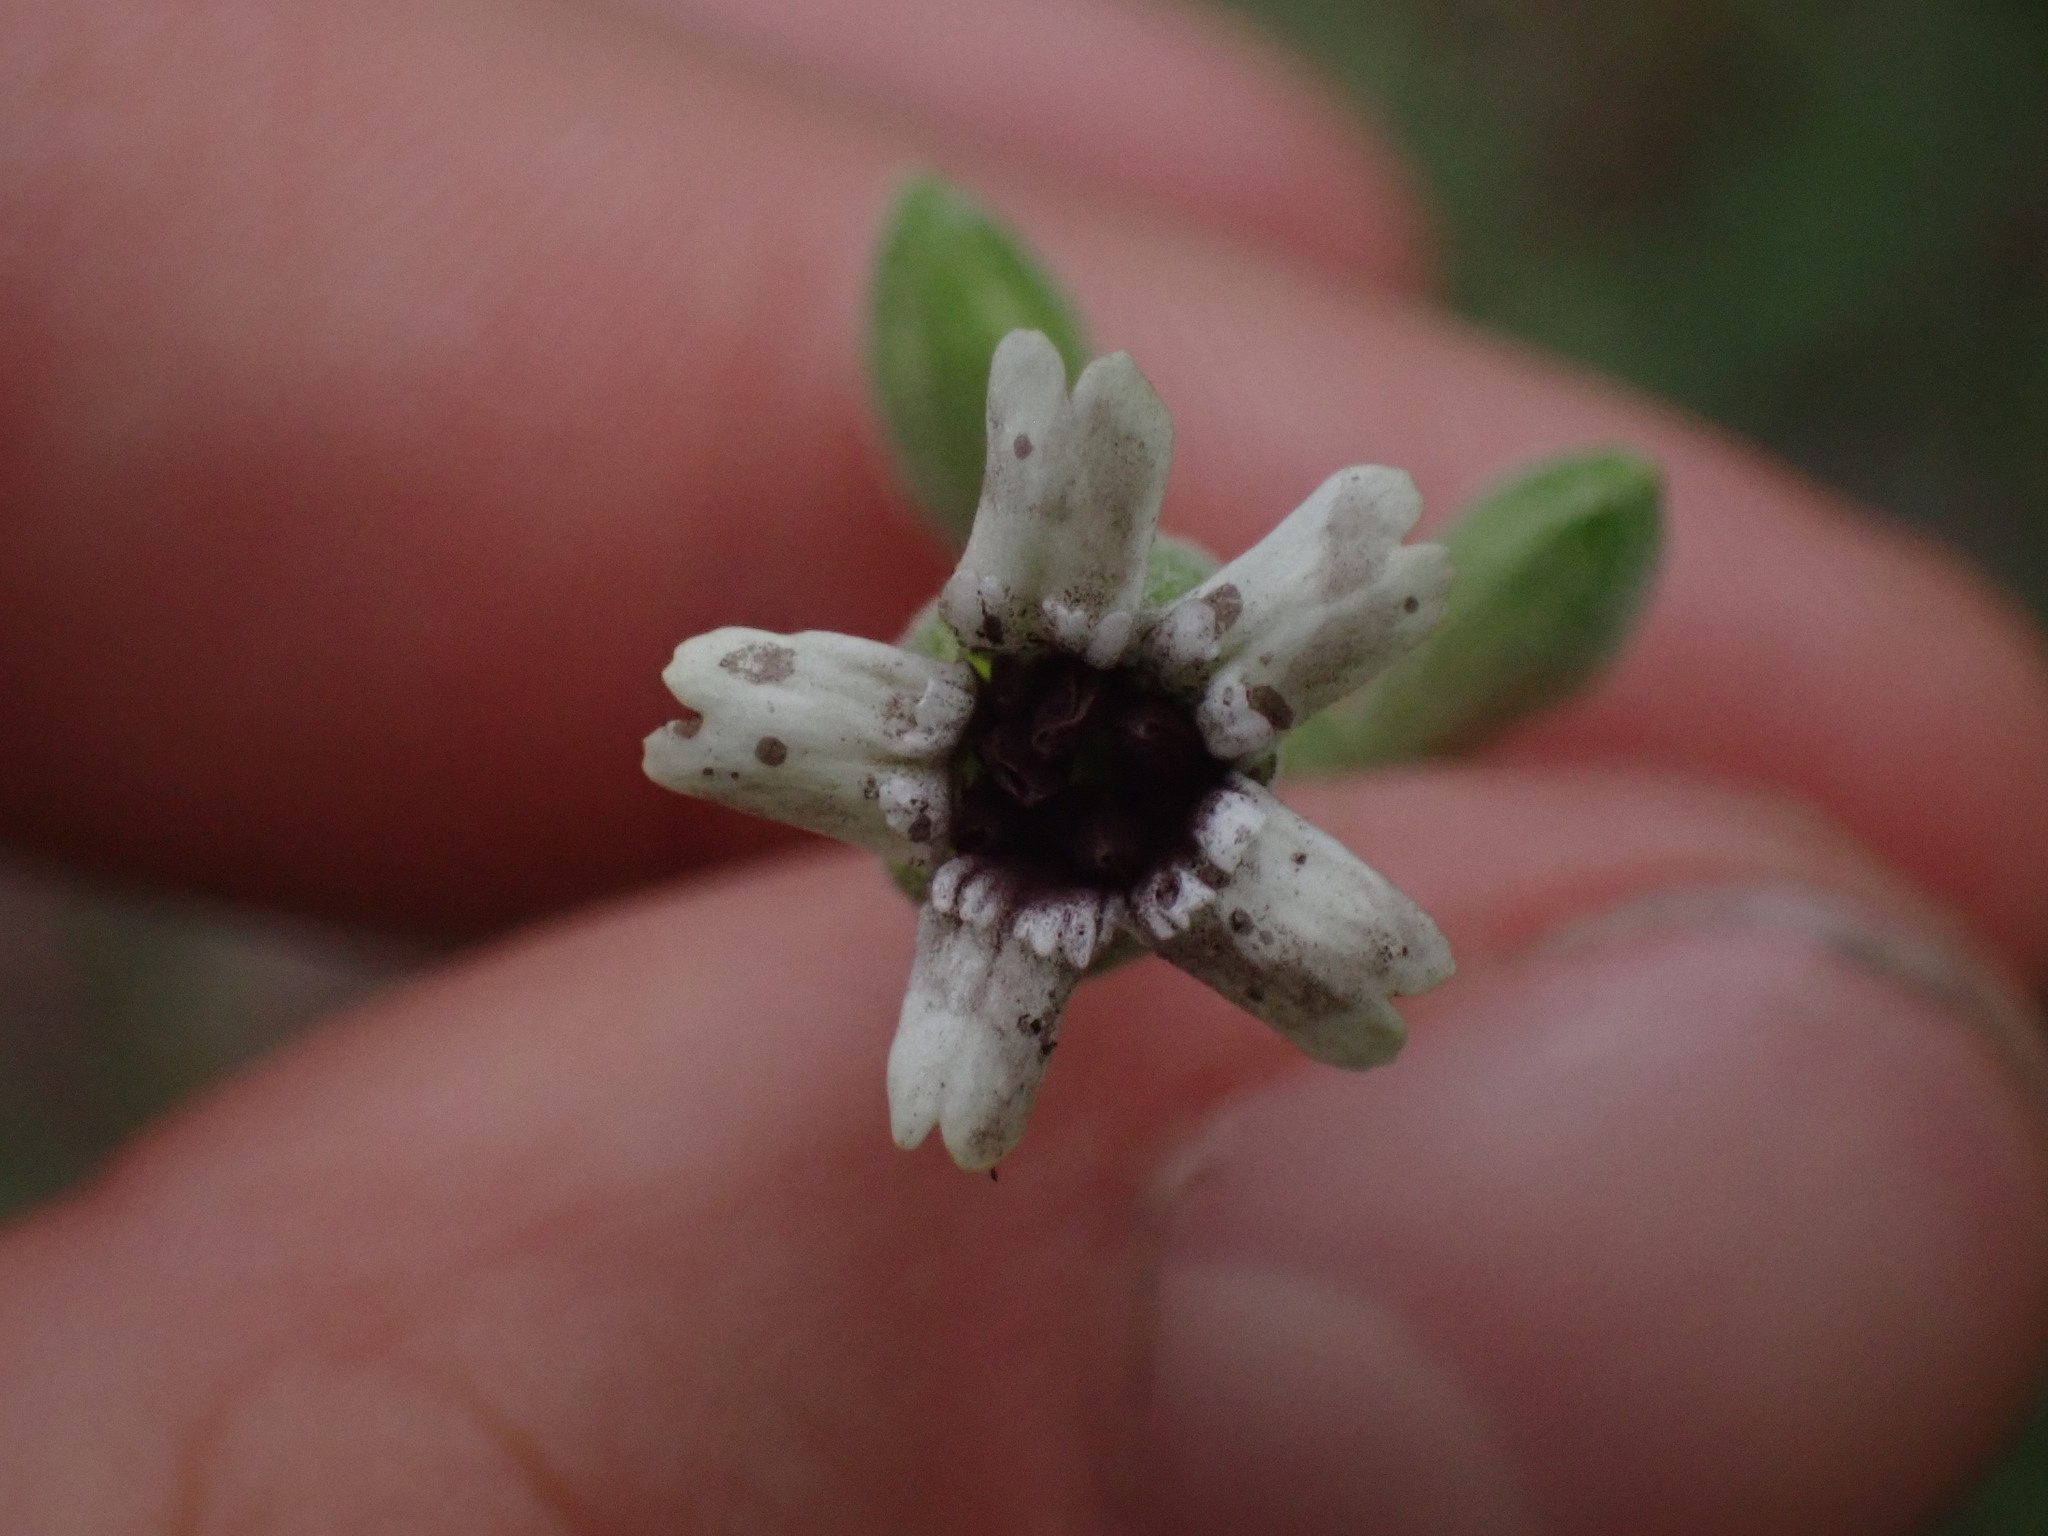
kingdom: Plantae
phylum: Tracheophyta
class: Magnoliopsida
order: Caryophyllales
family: Caryophyllaceae
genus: Silene
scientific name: Silene douglasii
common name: Douglas's catchfly
